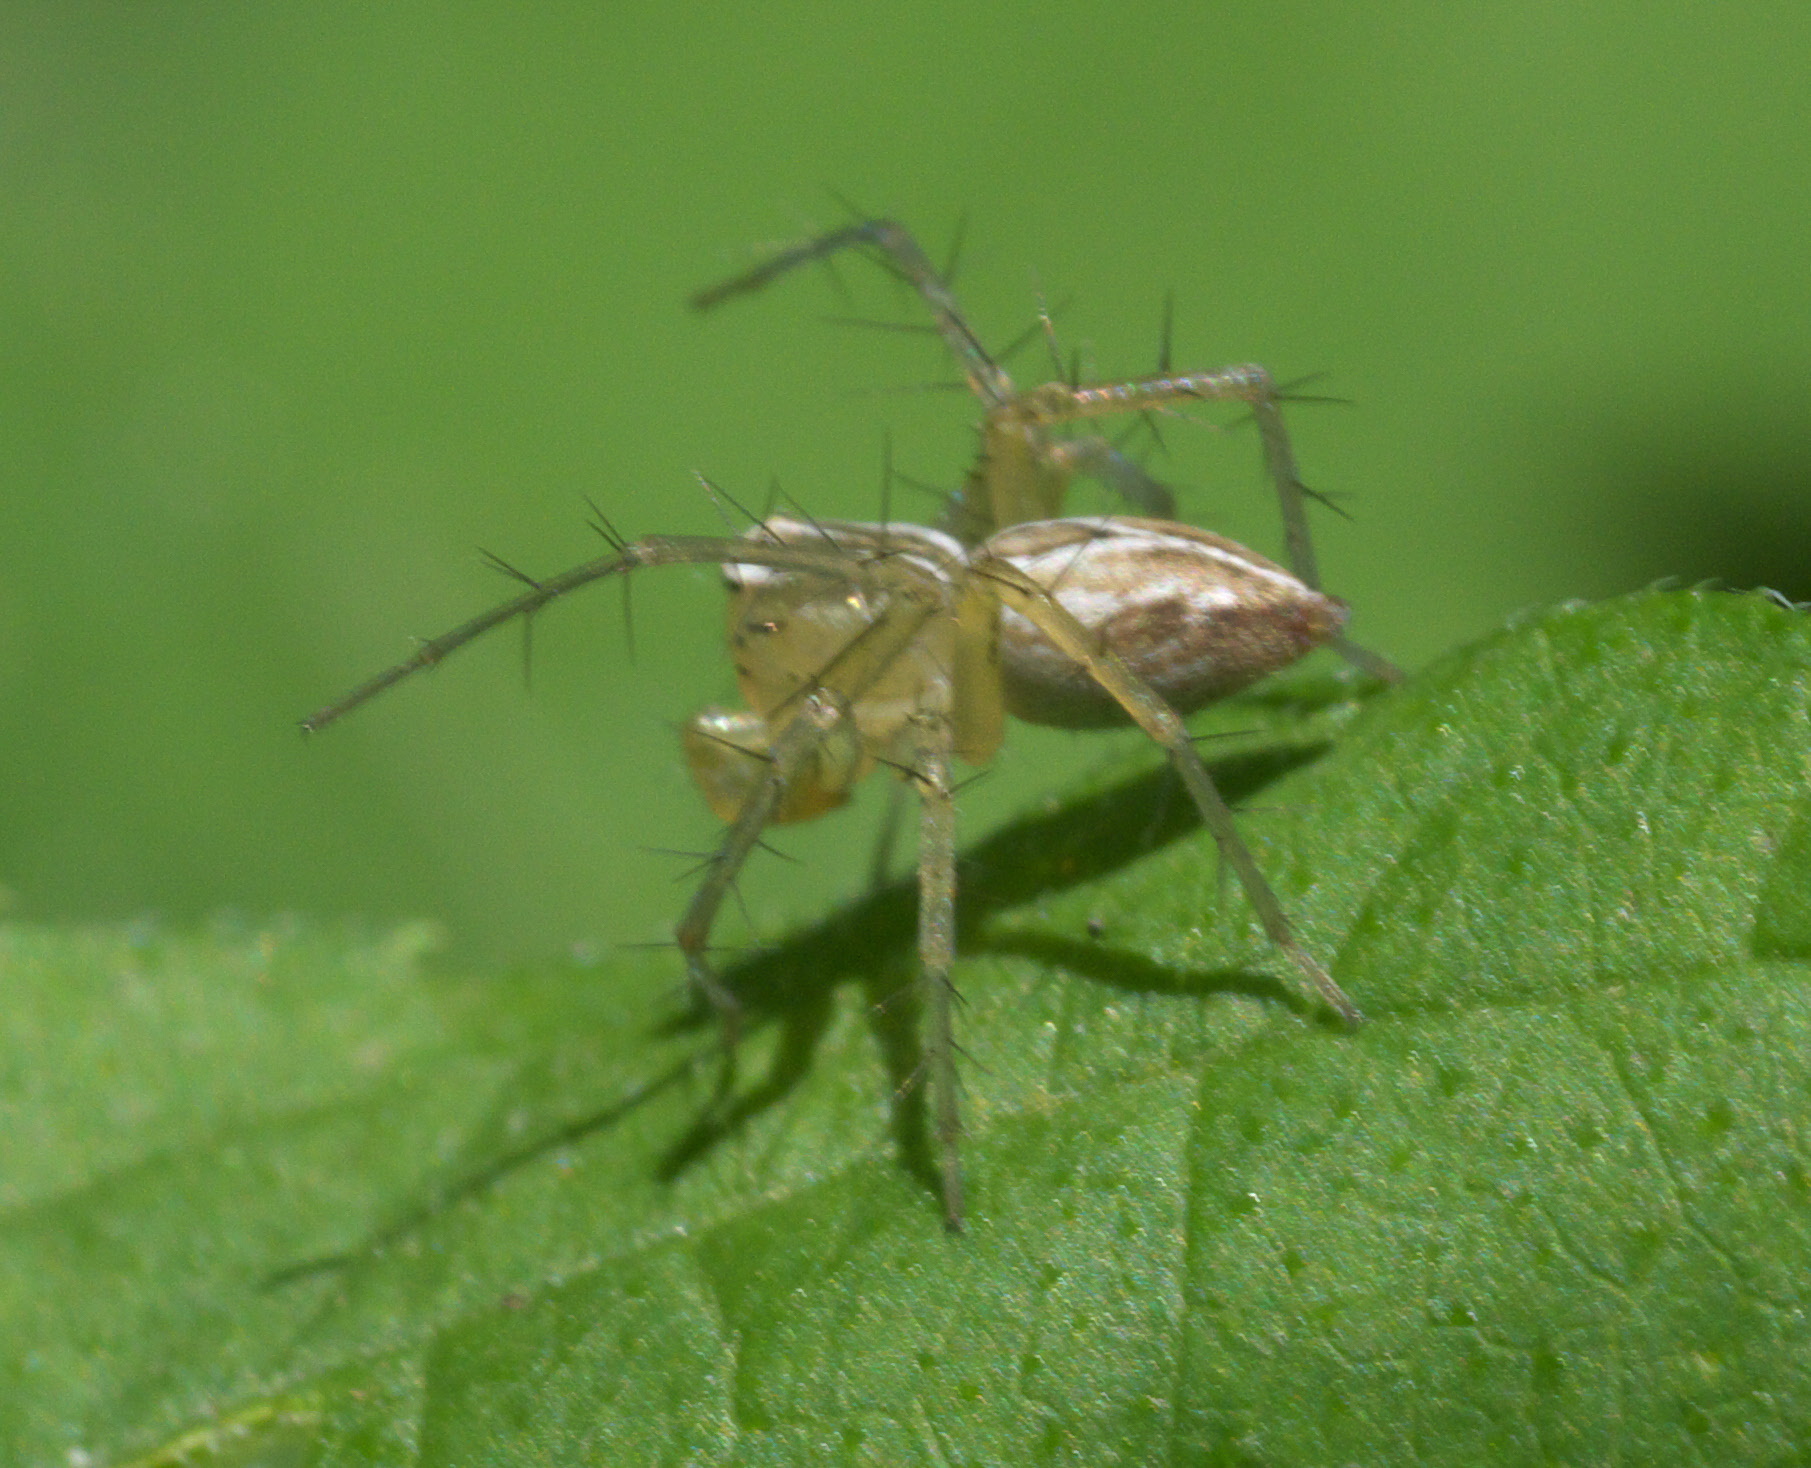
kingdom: Animalia
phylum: Arthropoda
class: Arachnida
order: Araneae
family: Oxyopidae
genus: Oxyopes
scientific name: Oxyopes salticus
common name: Lynx spiders
